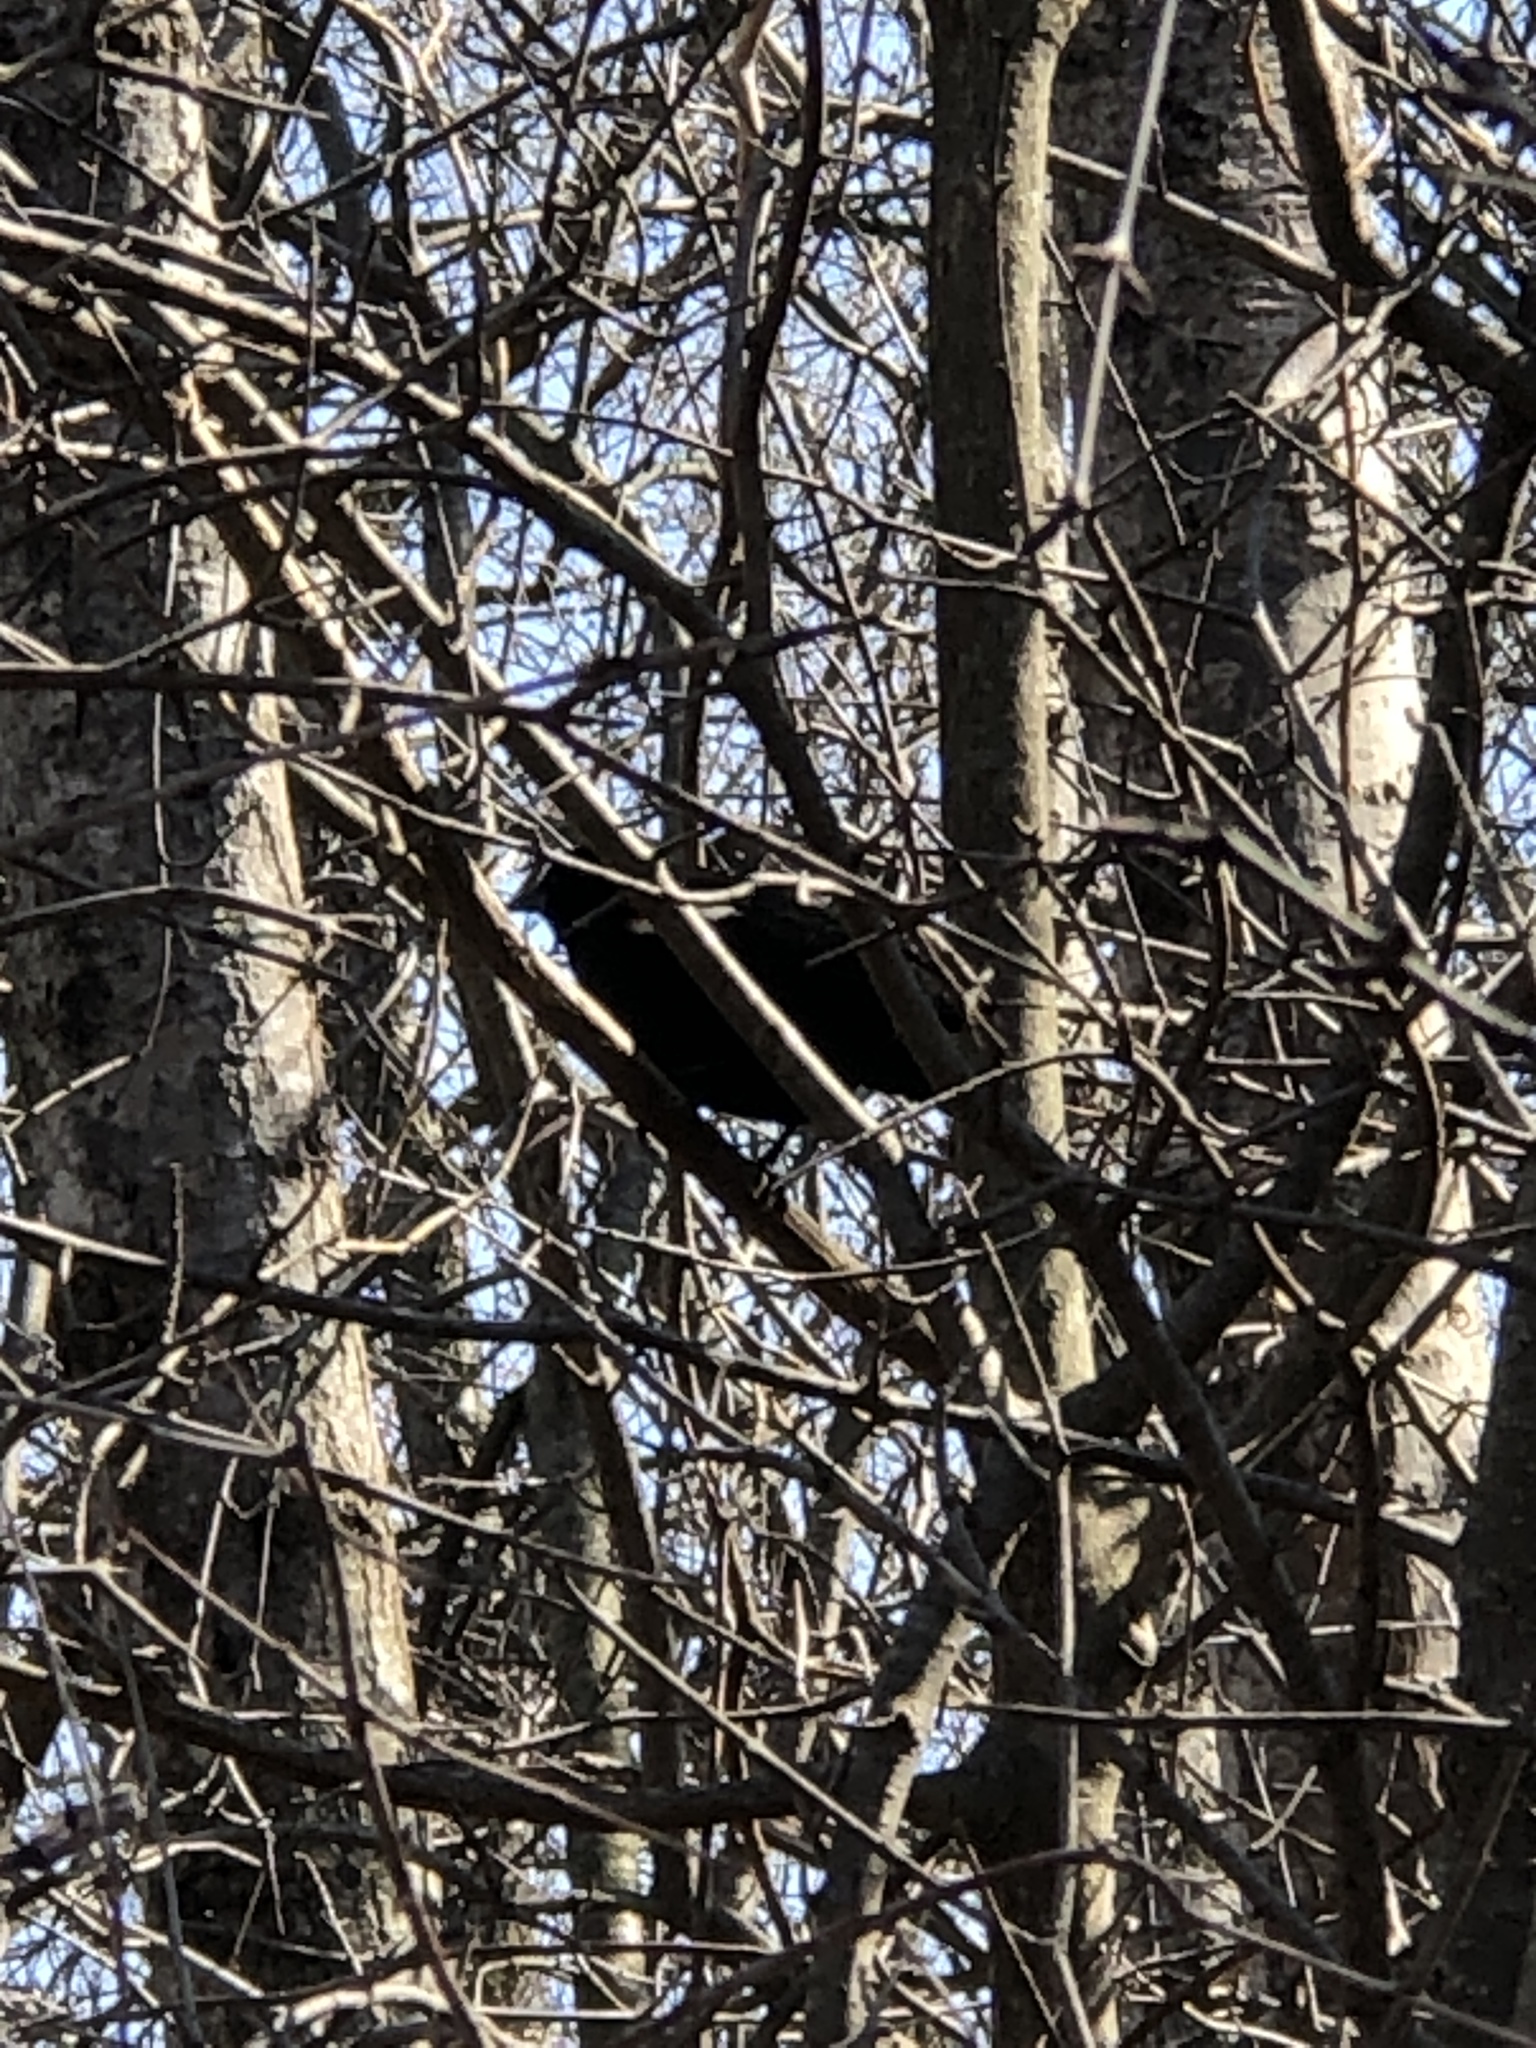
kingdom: Animalia
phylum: Chordata
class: Aves
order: Passeriformes
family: Icteridae
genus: Agelaius
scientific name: Agelaius phoeniceus
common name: Red-winged blackbird
